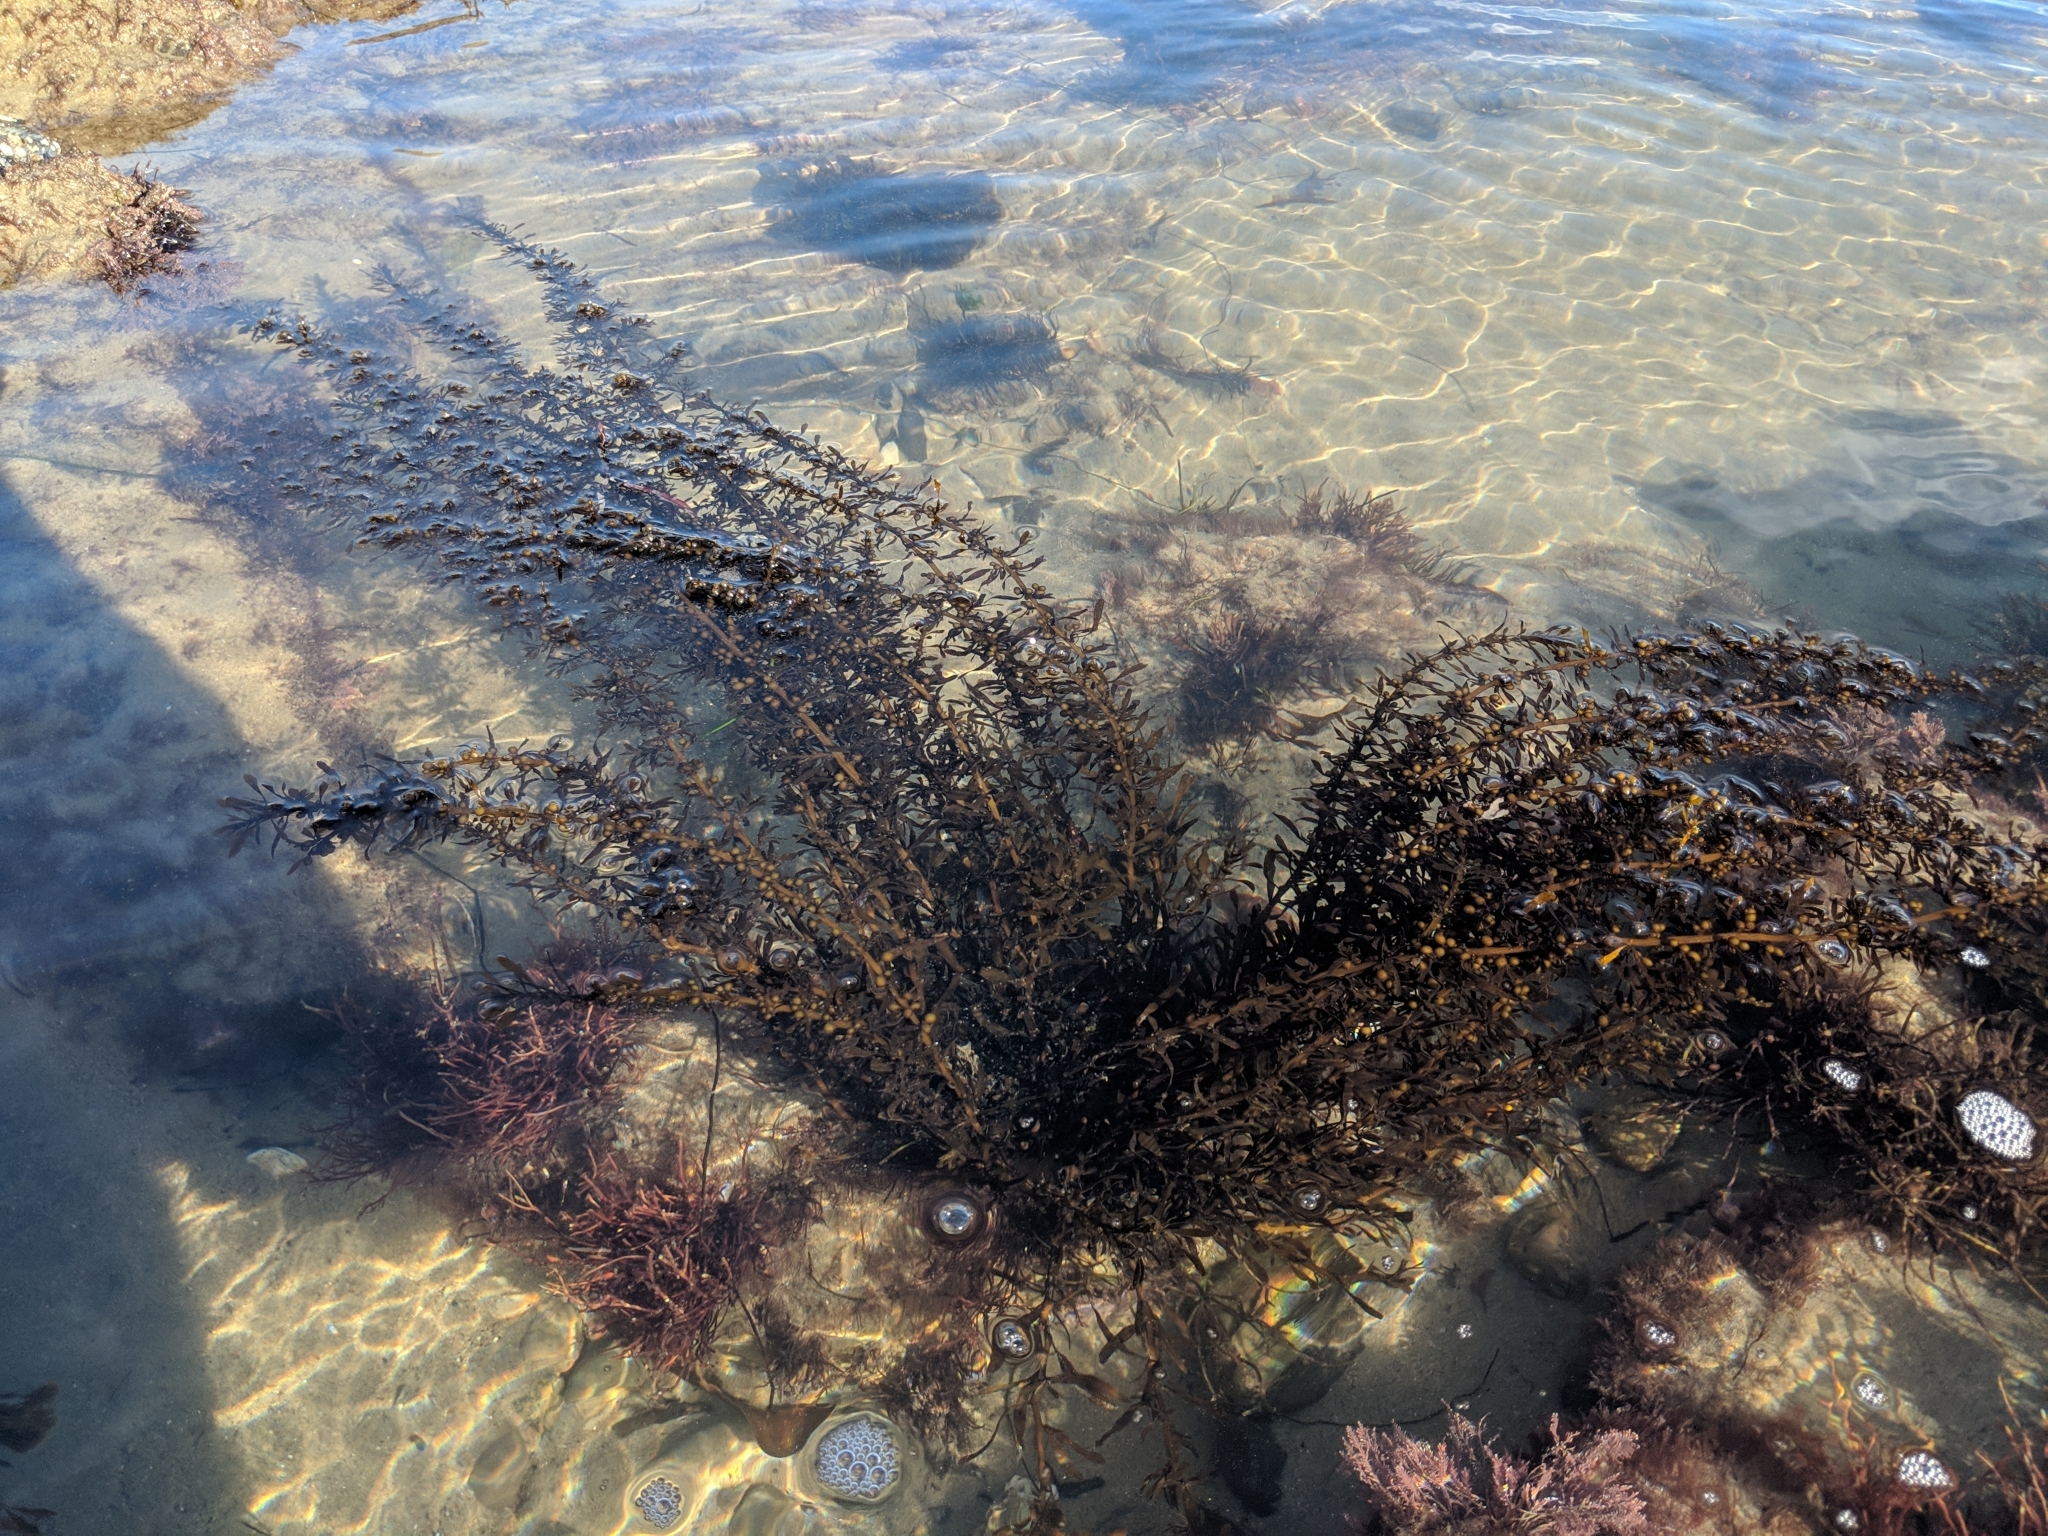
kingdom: Chromista
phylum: Ochrophyta
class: Phaeophyceae
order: Fucales
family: Sargassaceae
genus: Sargassum
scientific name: Sargassum muticum
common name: Japweed
